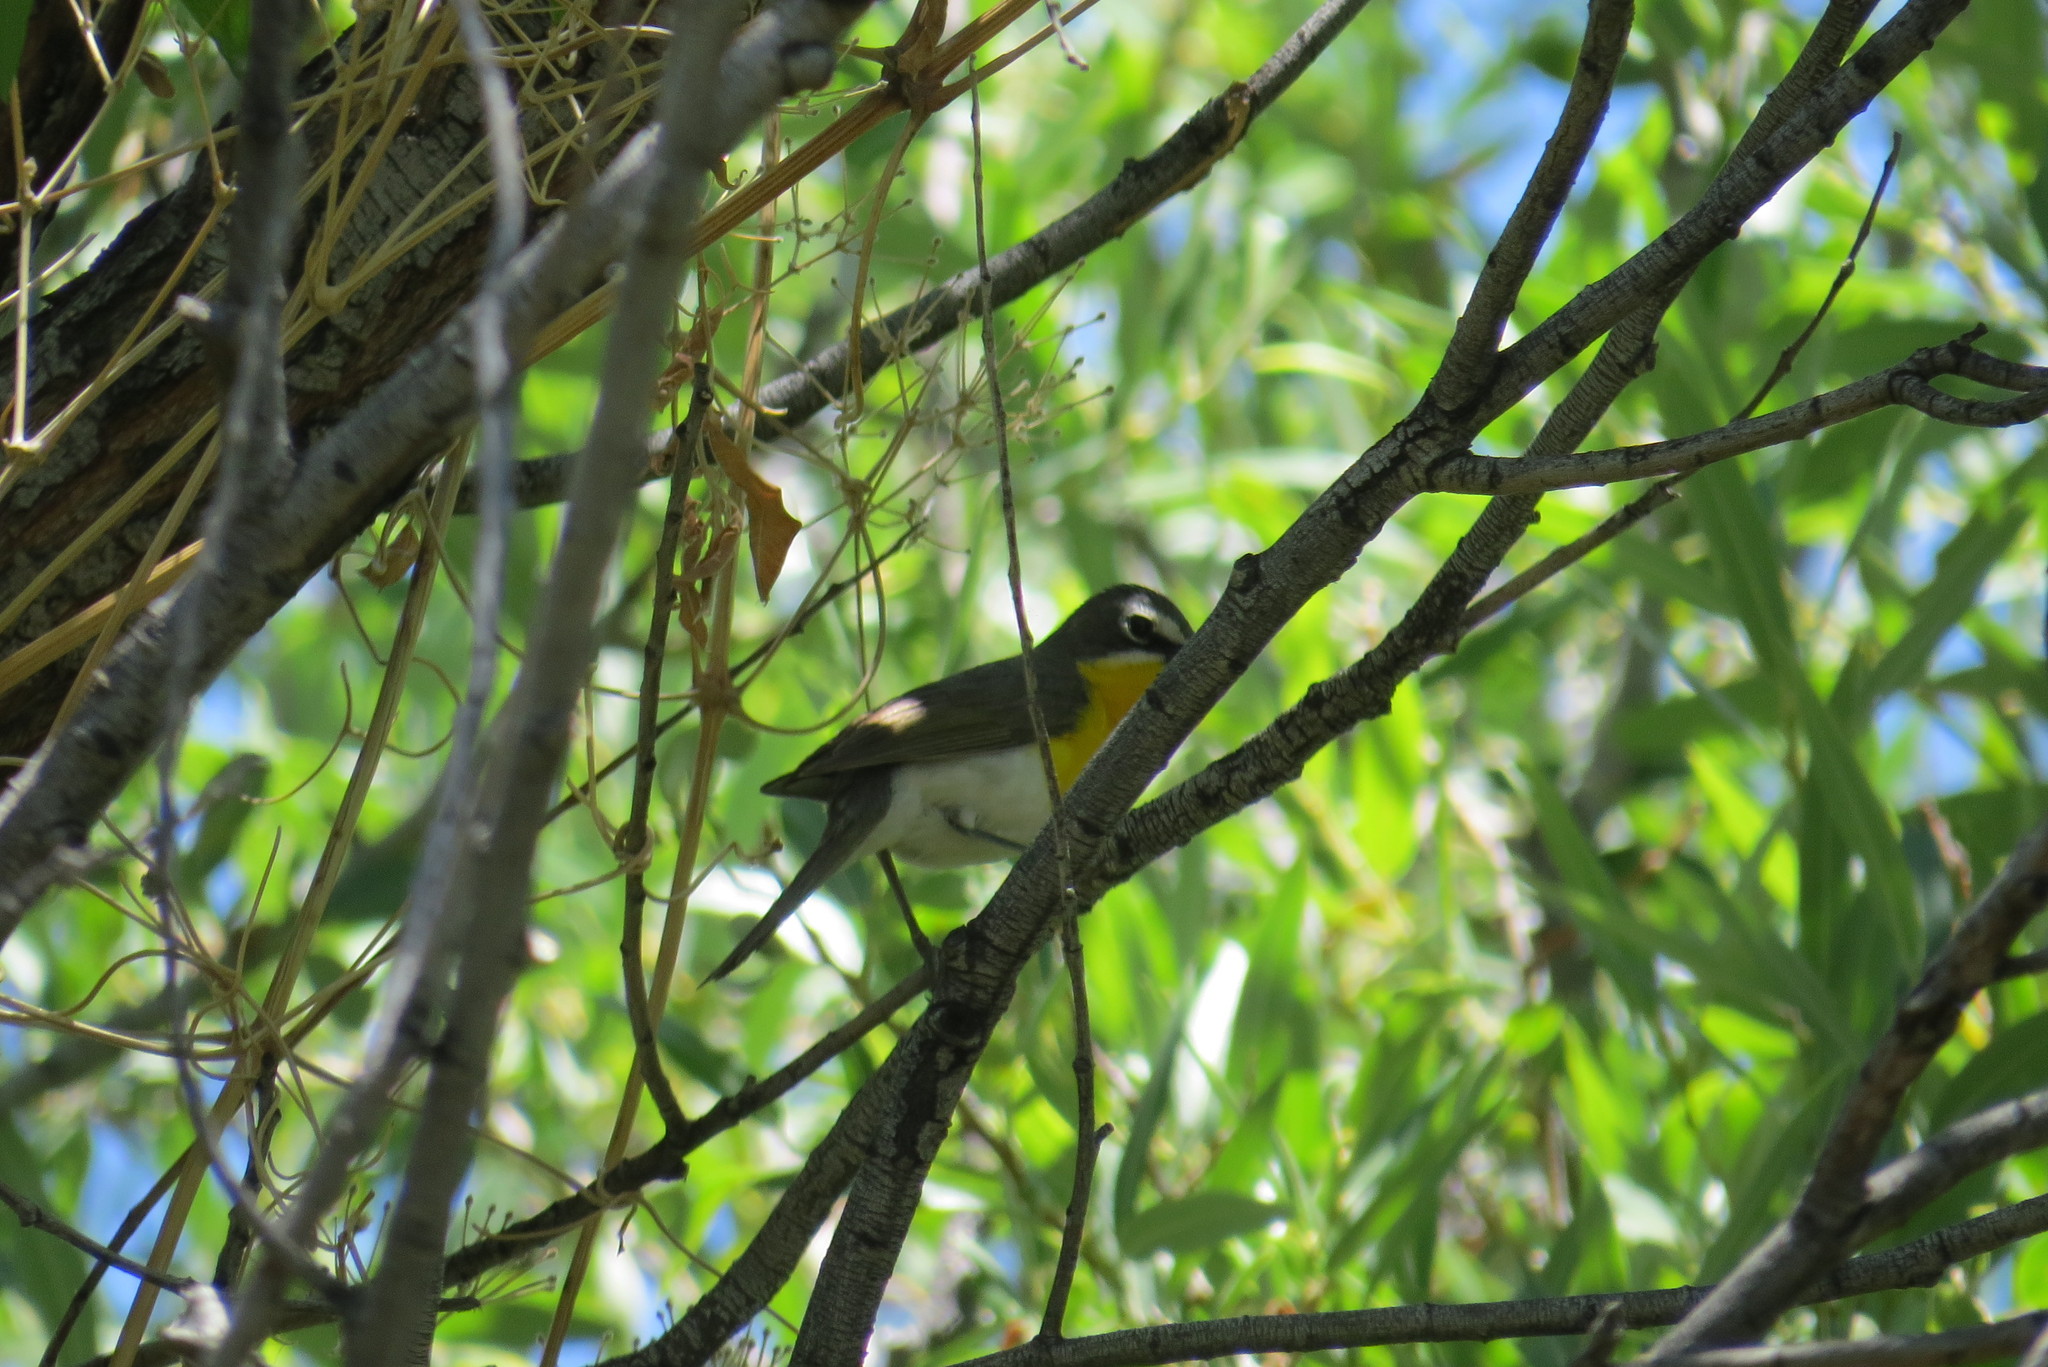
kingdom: Animalia
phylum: Chordata
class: Aves
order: Passeriformes
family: Parulidae
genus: Icteria
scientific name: Icteria virens
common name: Yellow-breasted chat
